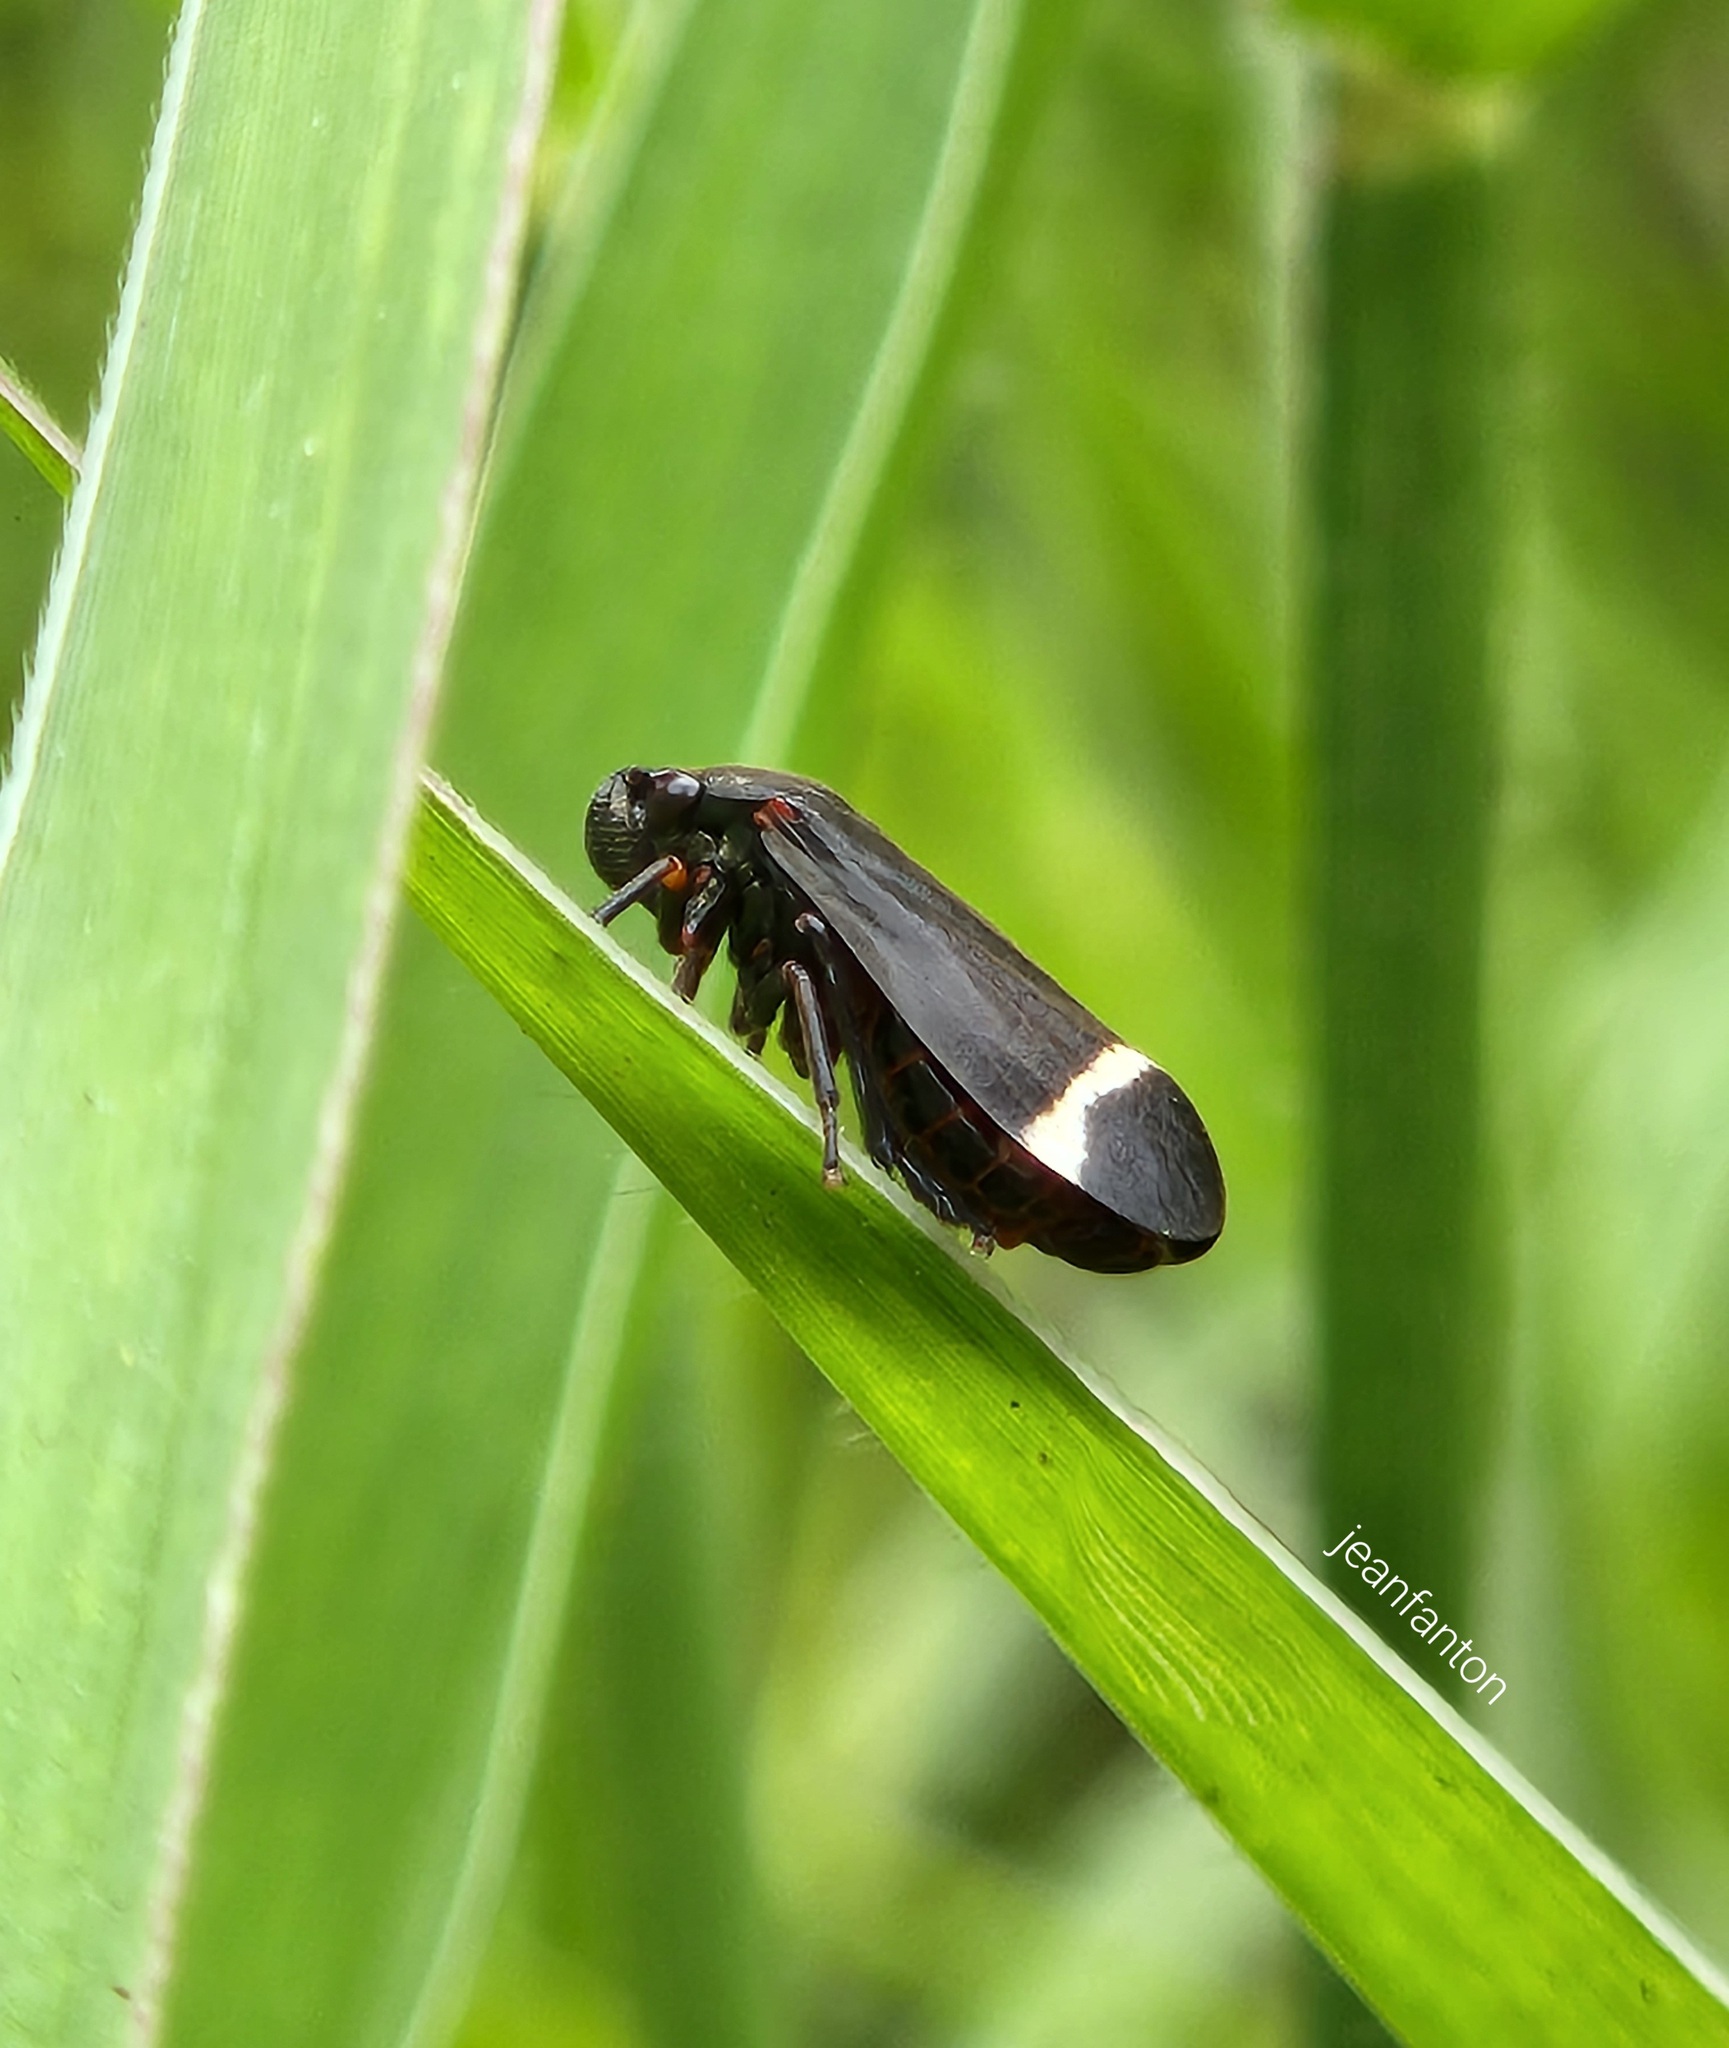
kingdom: Animalia
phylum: Arthropoda
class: Insecta
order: Hemiptera
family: Cercopidae
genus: Notozulia
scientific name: Notozulia entreriana
